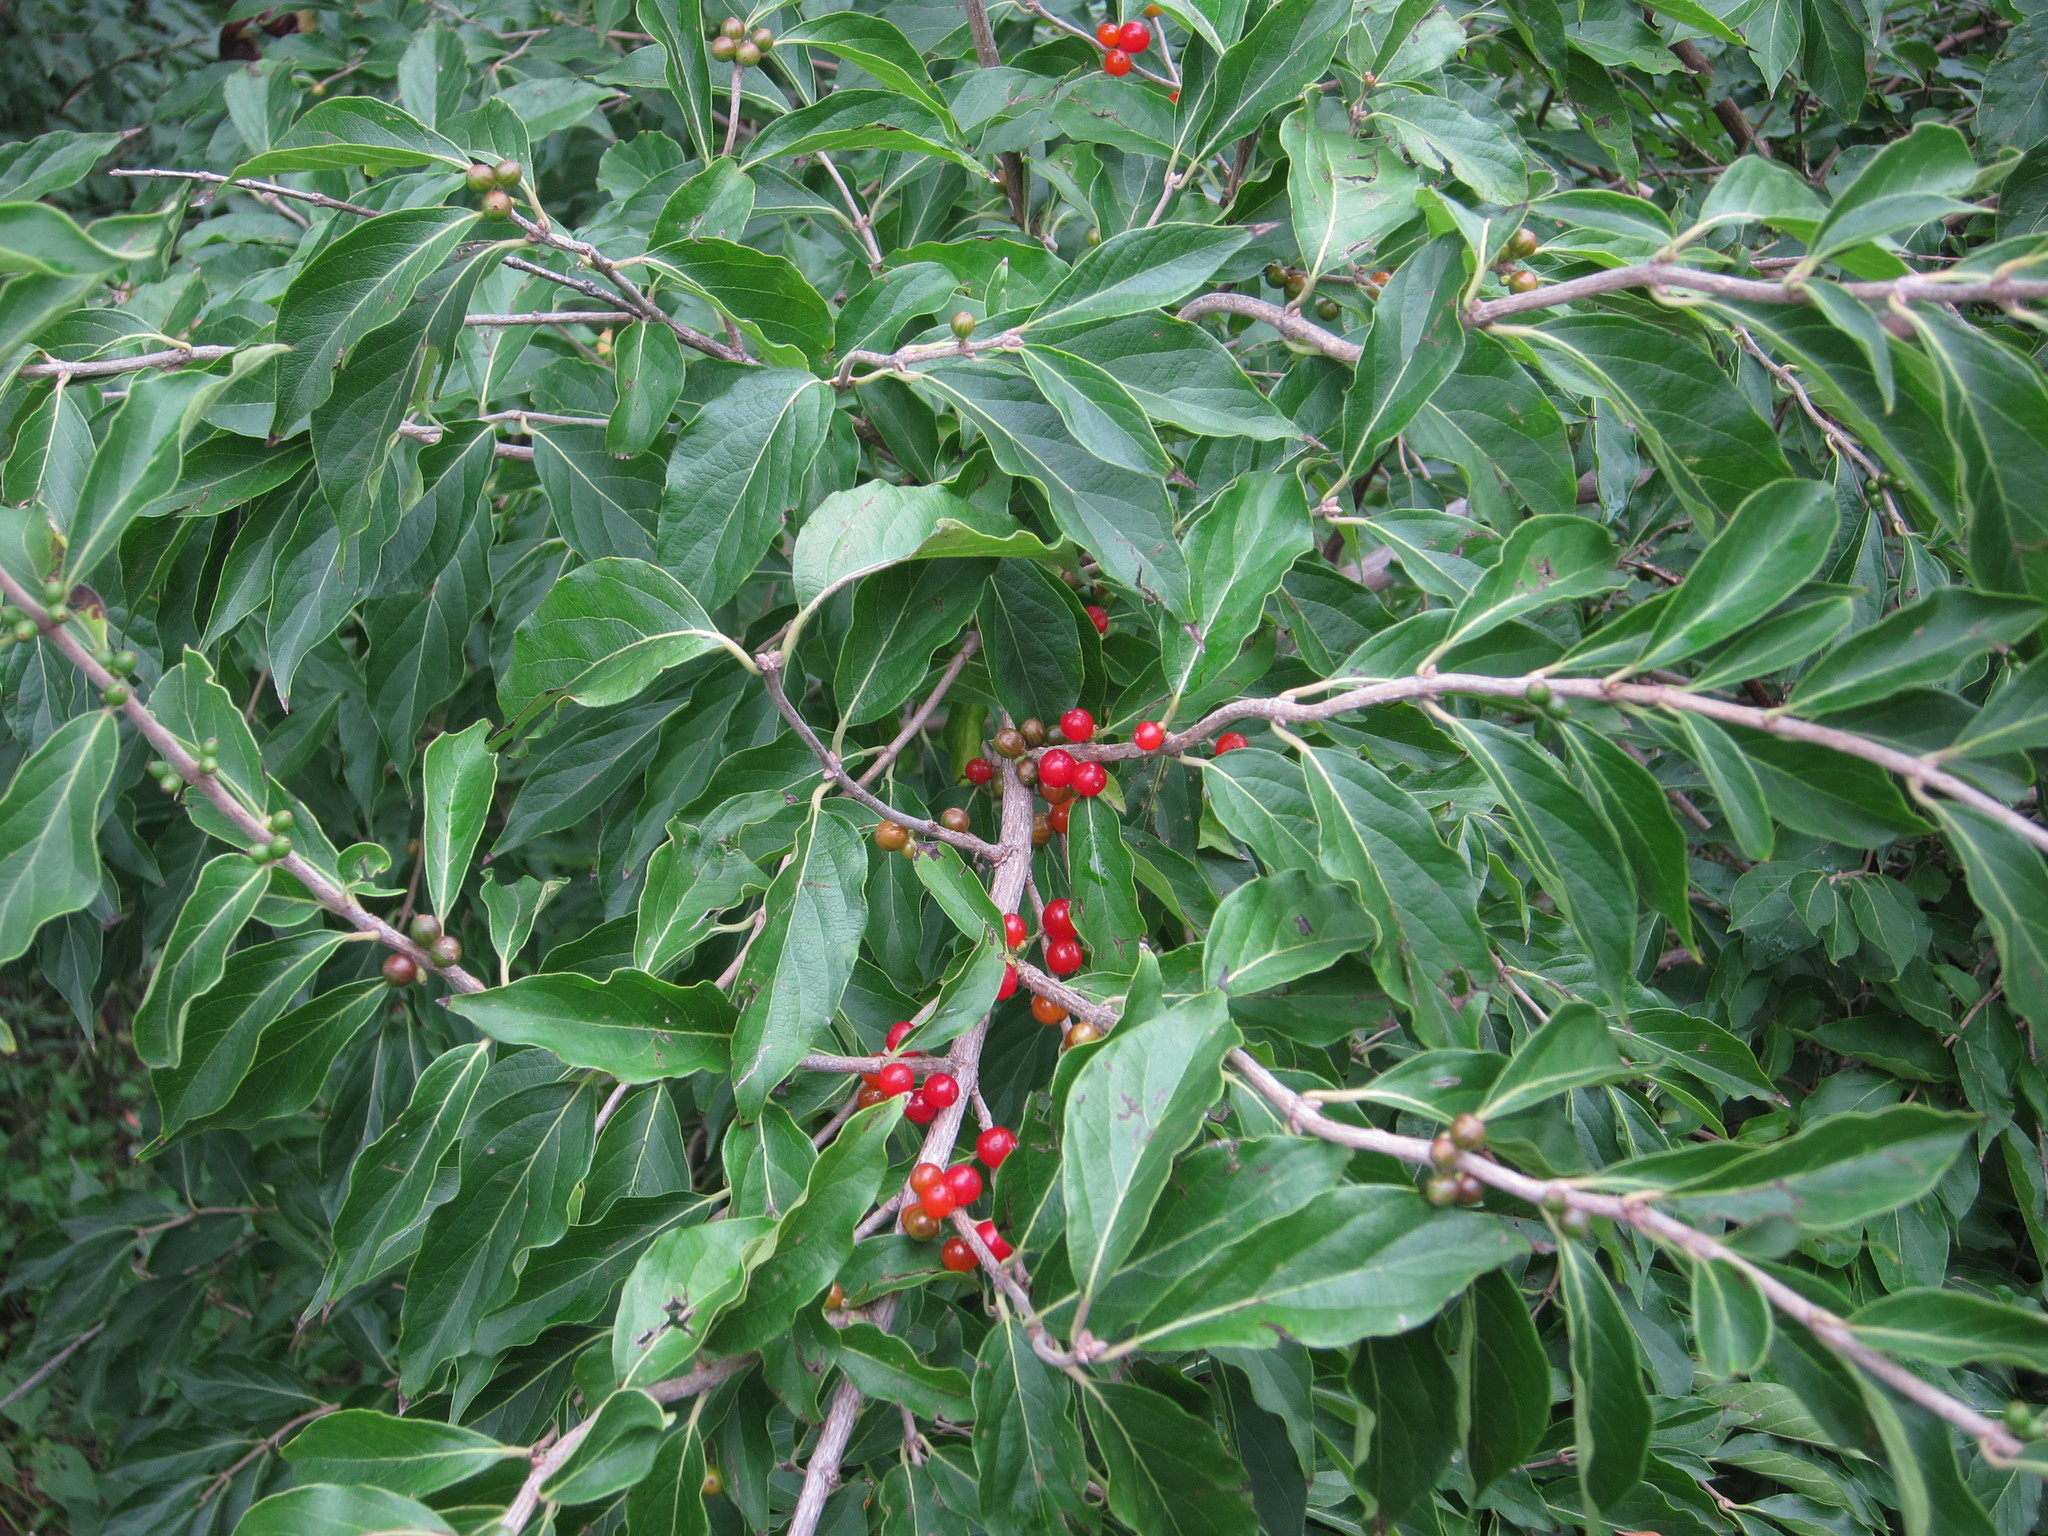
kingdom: Plantae
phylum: Tracheophyta
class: Magnoliopsida
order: Dipsacales
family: Caprifoliaceae
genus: Lonicera
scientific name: Lonicera maackii
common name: Amur honeysuckle
